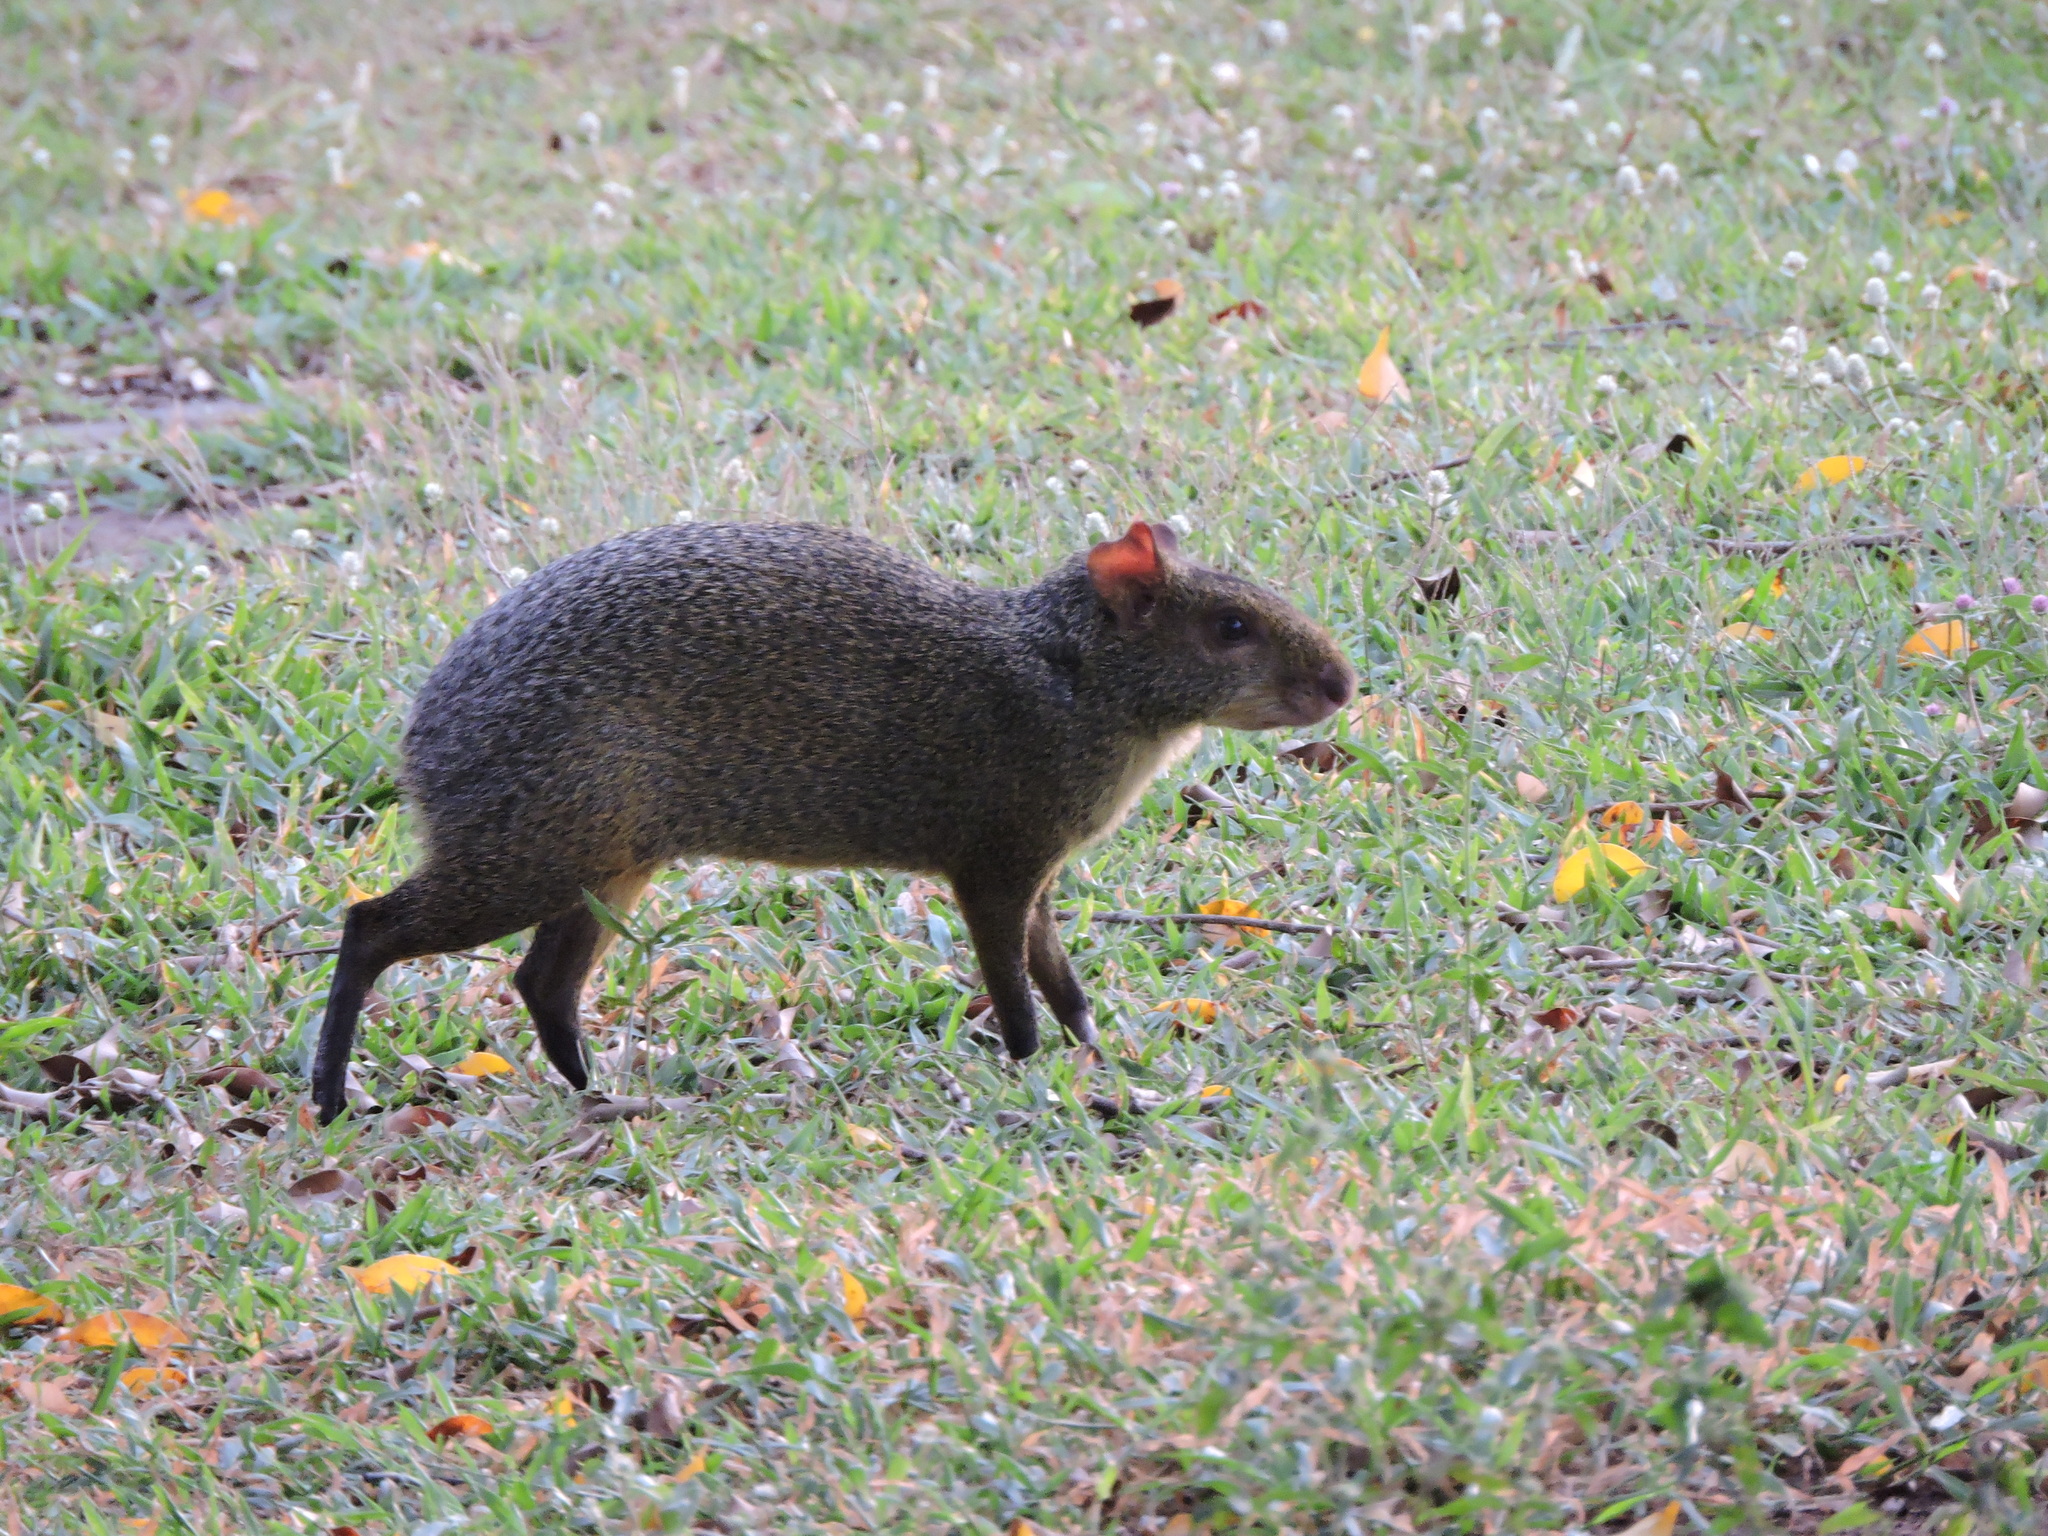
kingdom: Animalia
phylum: Chordata
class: Mammalia
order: Rodentia
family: Dasyproctidae
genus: Dasyprocta
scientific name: Dasyprocta azarae
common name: Azara's agouti
